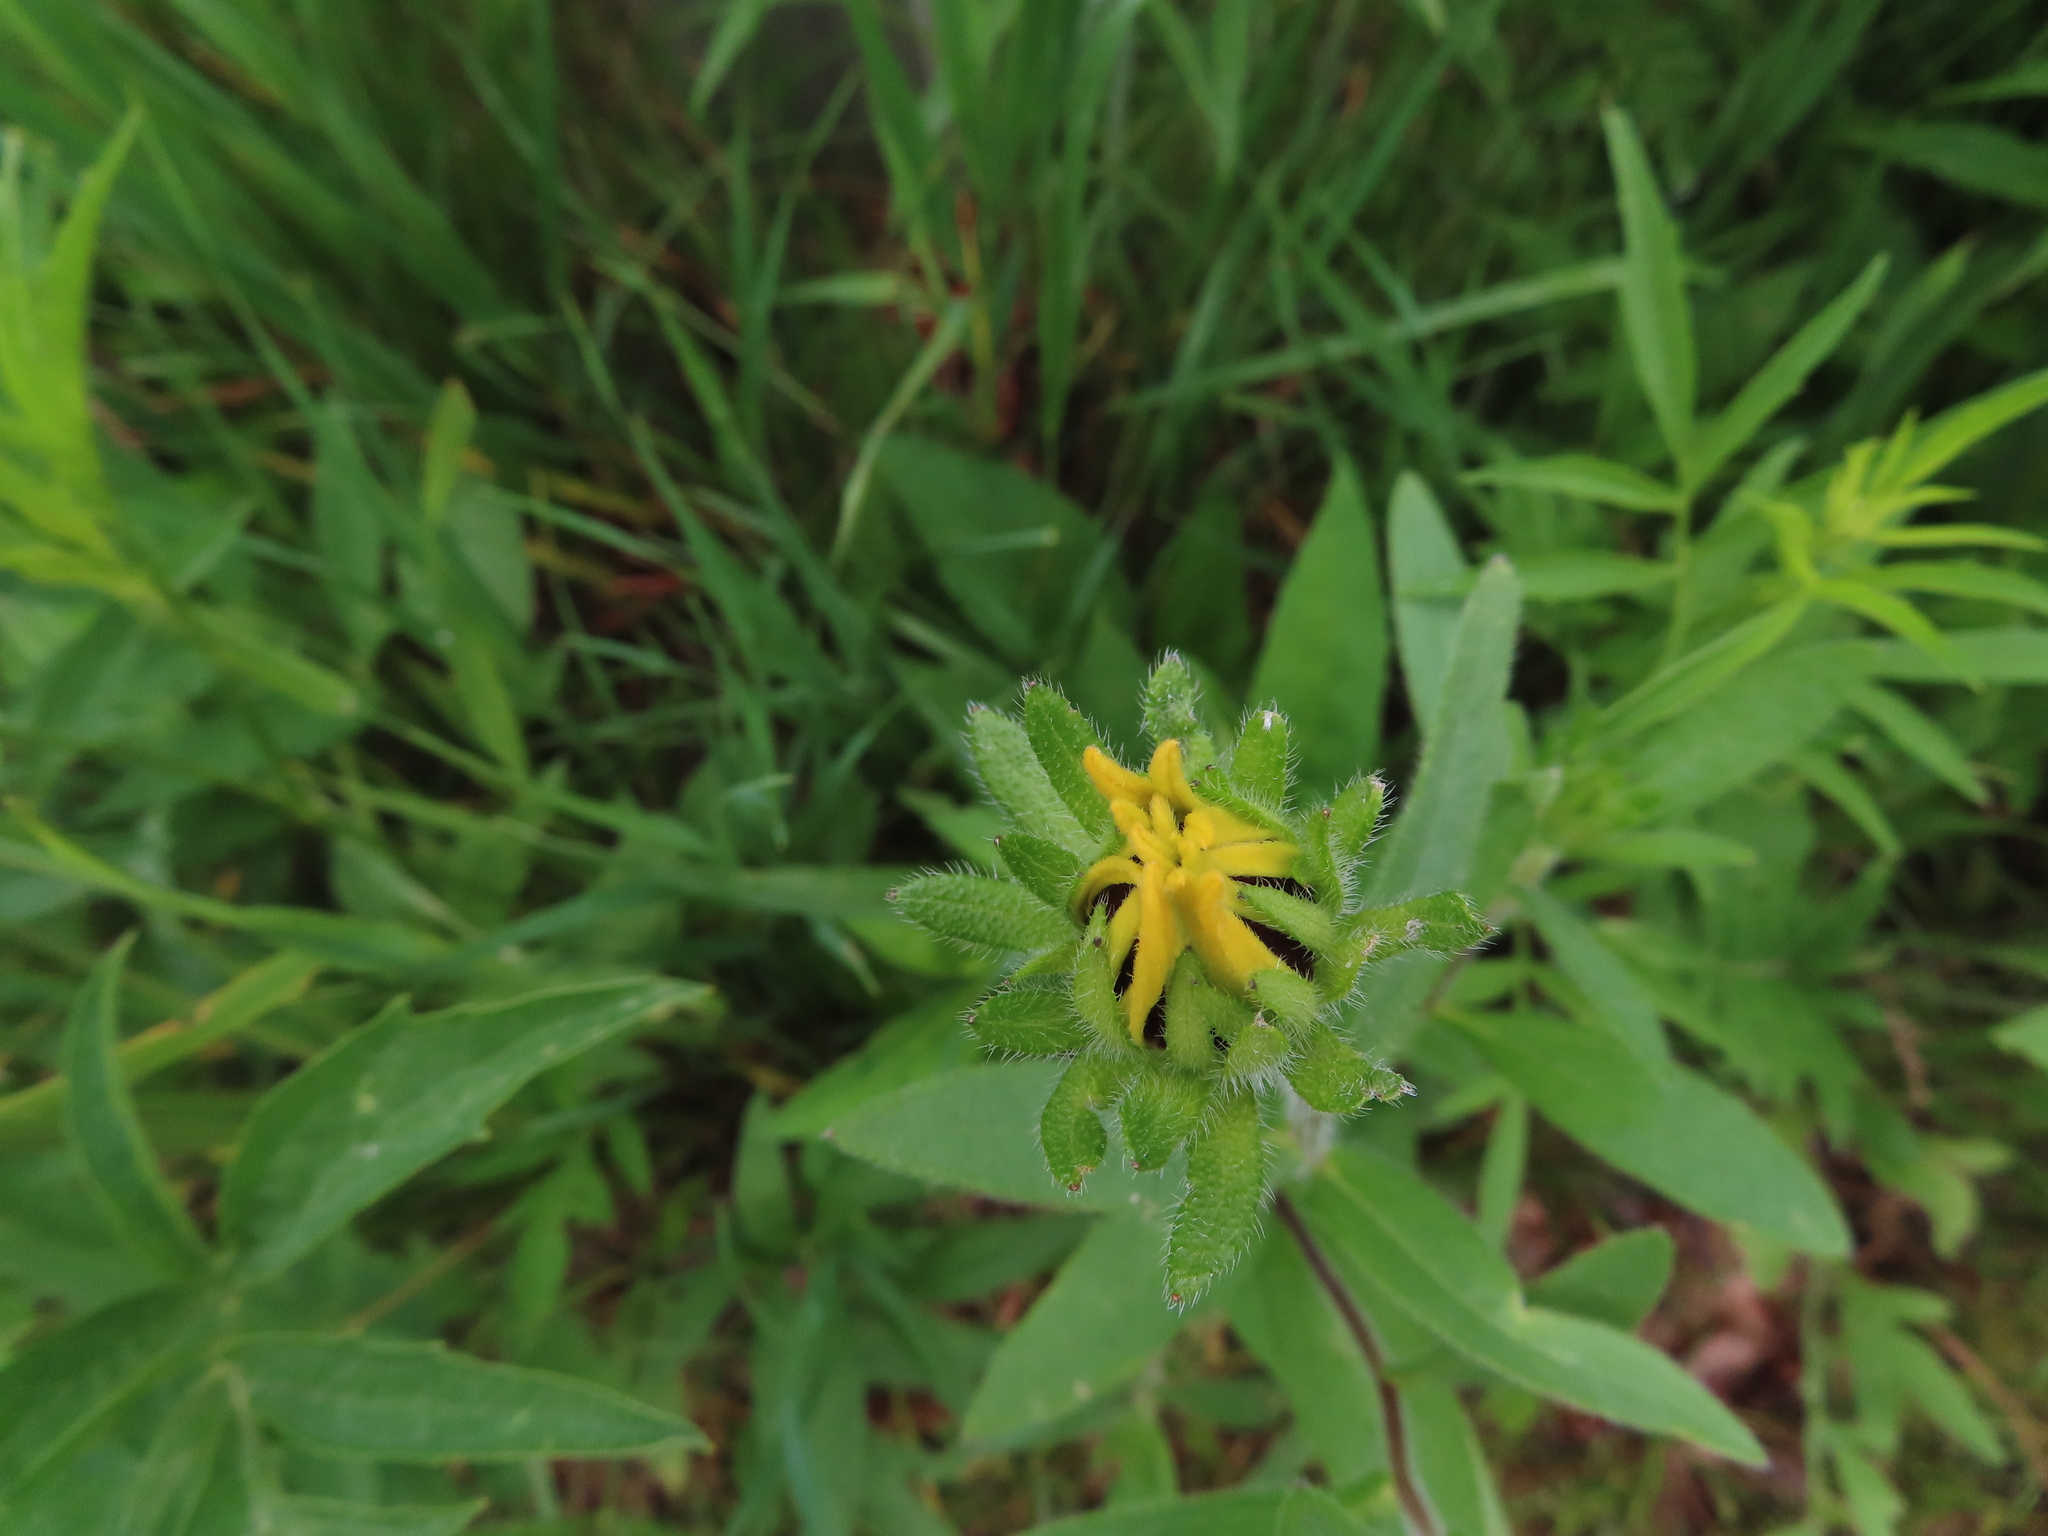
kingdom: Plantae
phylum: Tracheophyta
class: Magnoliopsida
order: Asterales
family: Asteraceae
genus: Rudbeckia
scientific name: Rudbeckia hirta
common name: Black-eyed-susan
